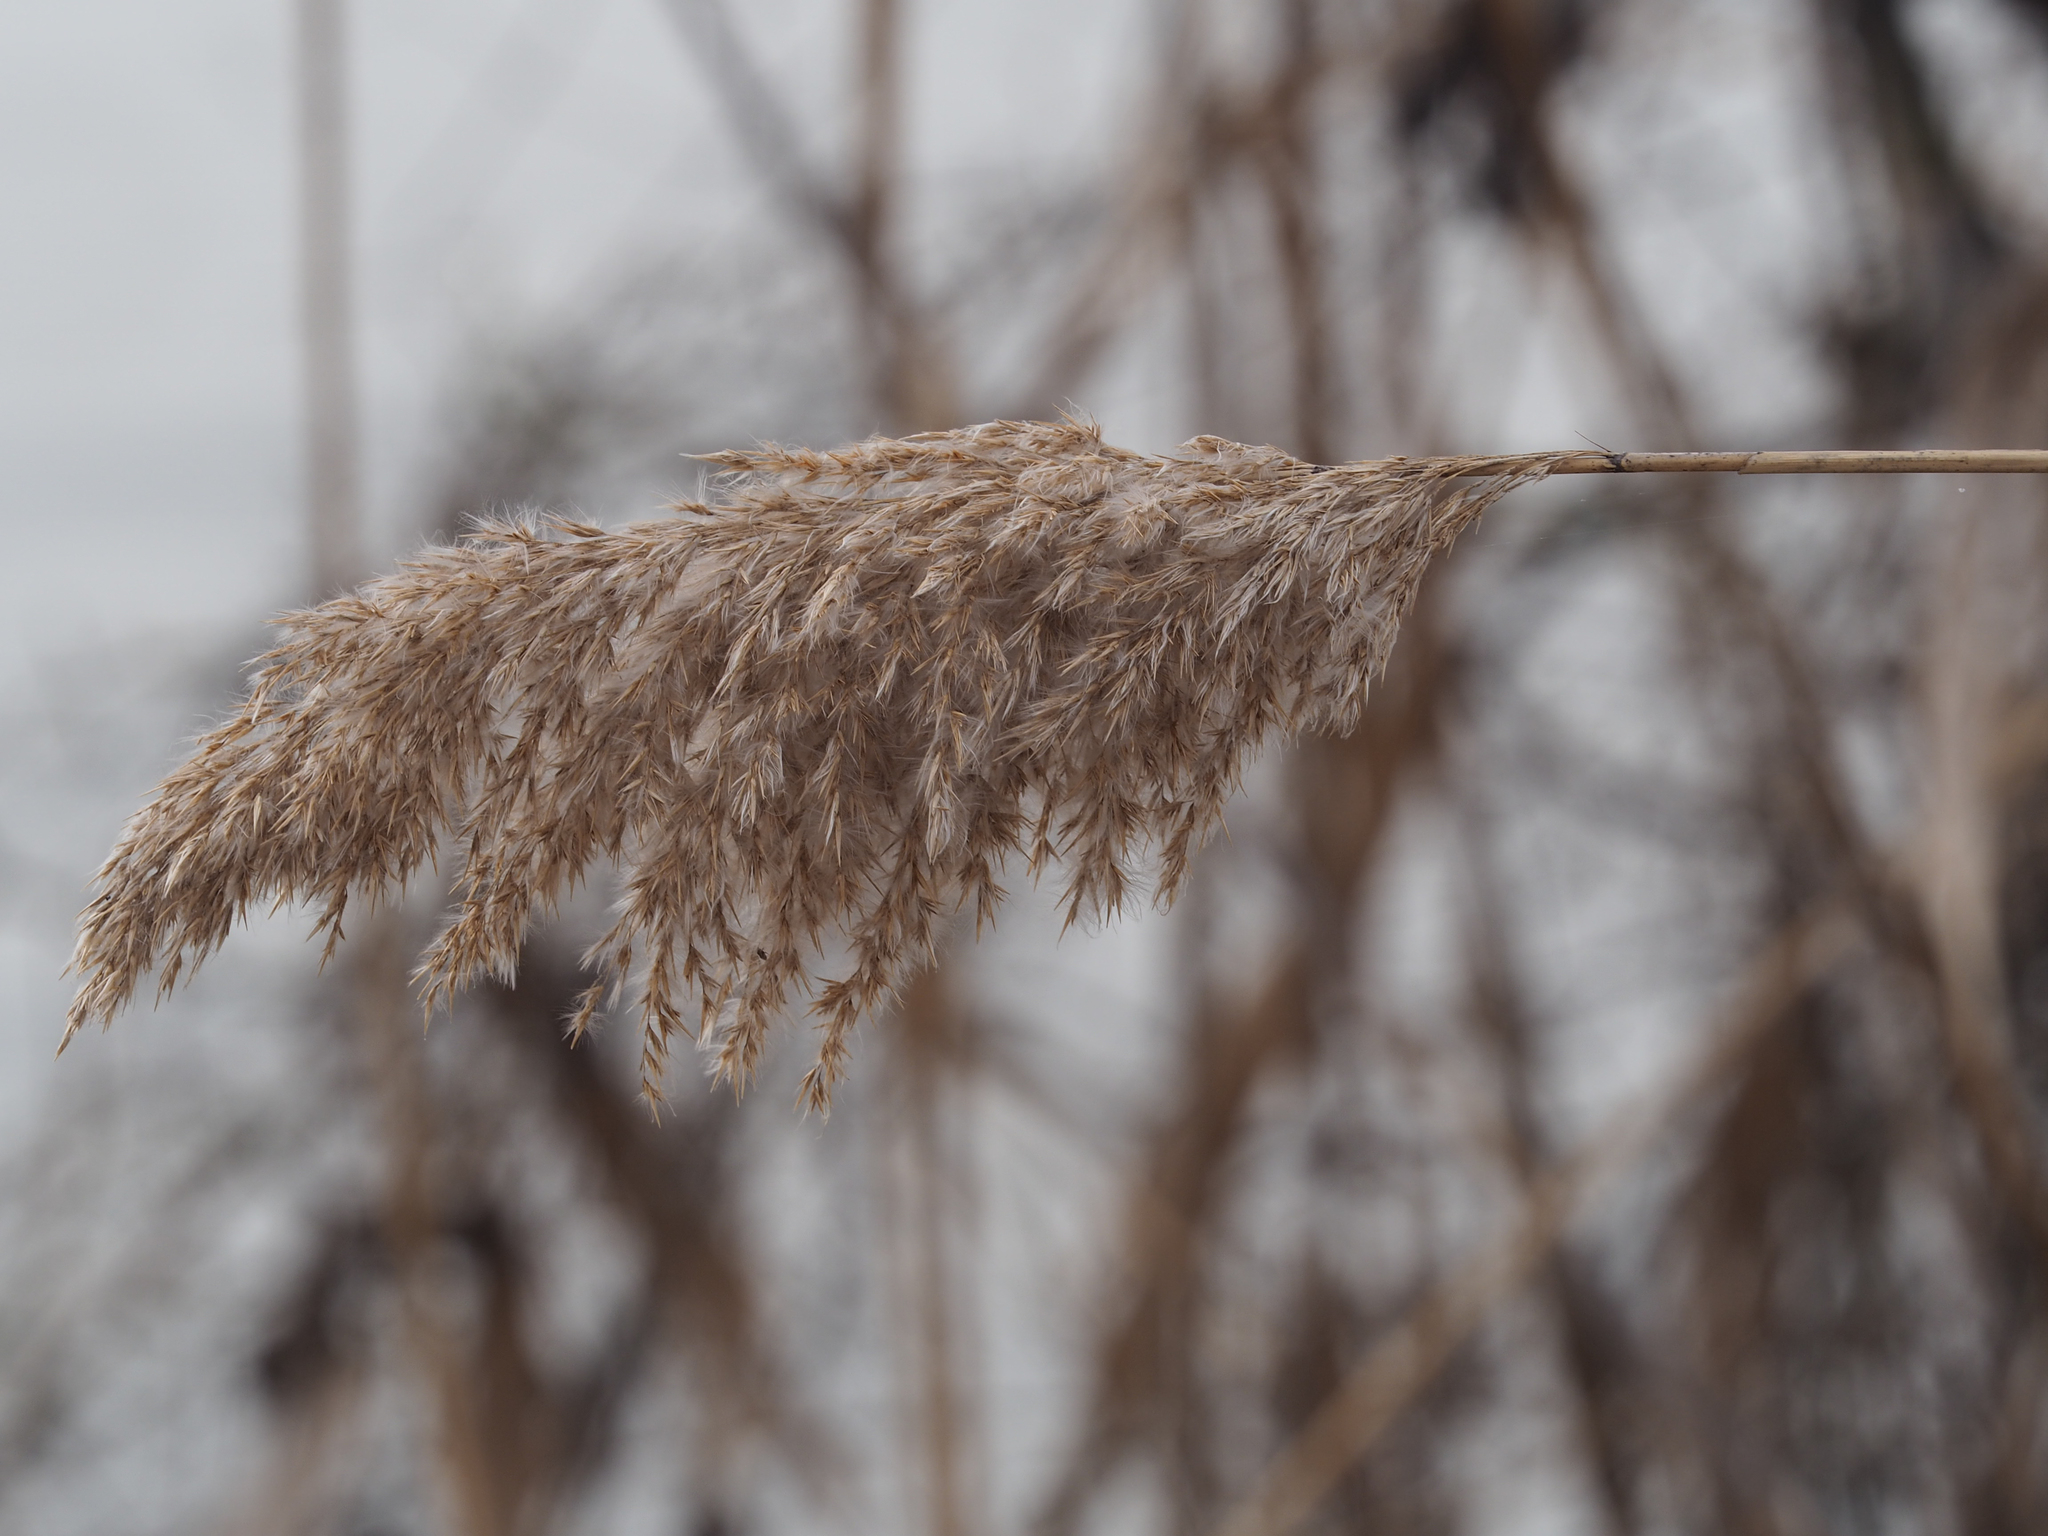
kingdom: Plantae
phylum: Tracheophyta
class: Liliopsida
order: Poales
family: Poaceae
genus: Phragmites
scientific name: Phragmites australis
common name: Common reed
